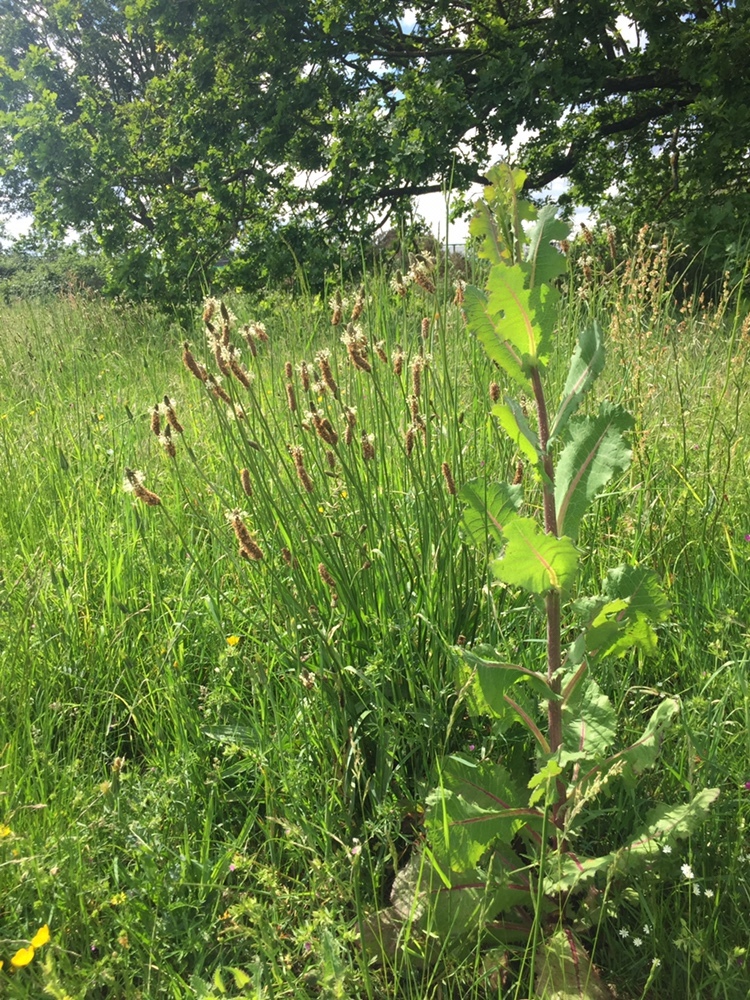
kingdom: Plantae
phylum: Tracheophyta
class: Magnoliopsida
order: Lamiales
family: Plantaginaceae
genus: Plantago
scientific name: Plantago lanceolata
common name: Ribwort plantain
